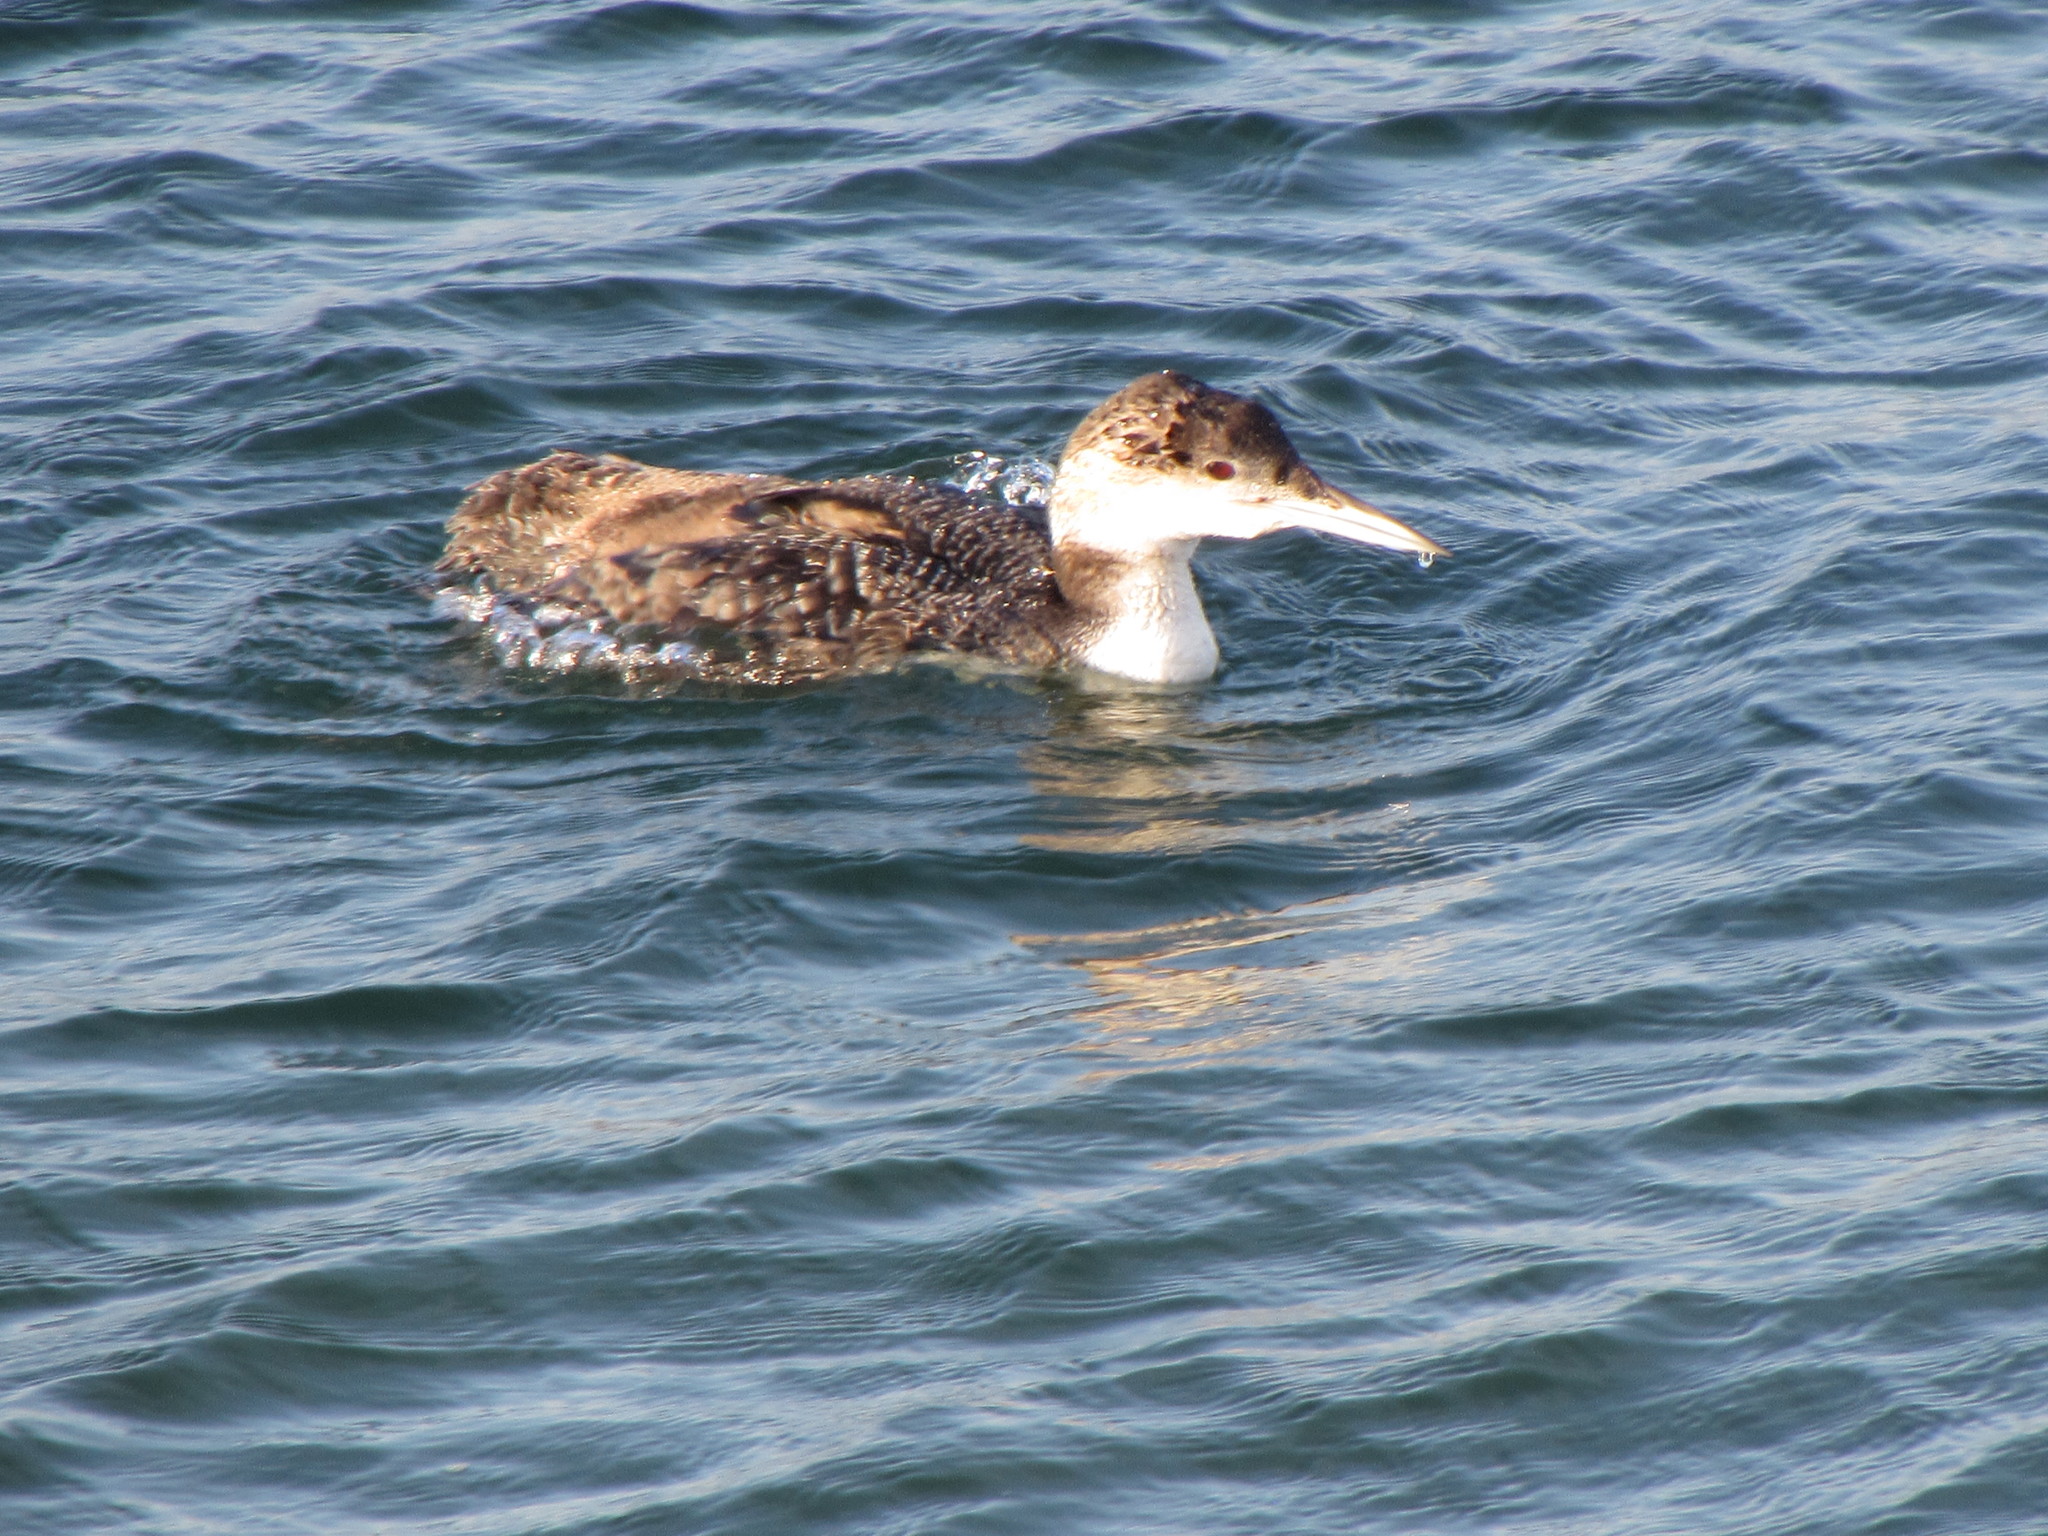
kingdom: Animalia
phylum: Chordata
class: Aves
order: Gaviiformes
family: Gaviidae
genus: Gavia
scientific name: Gavia immer
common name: Common loon
